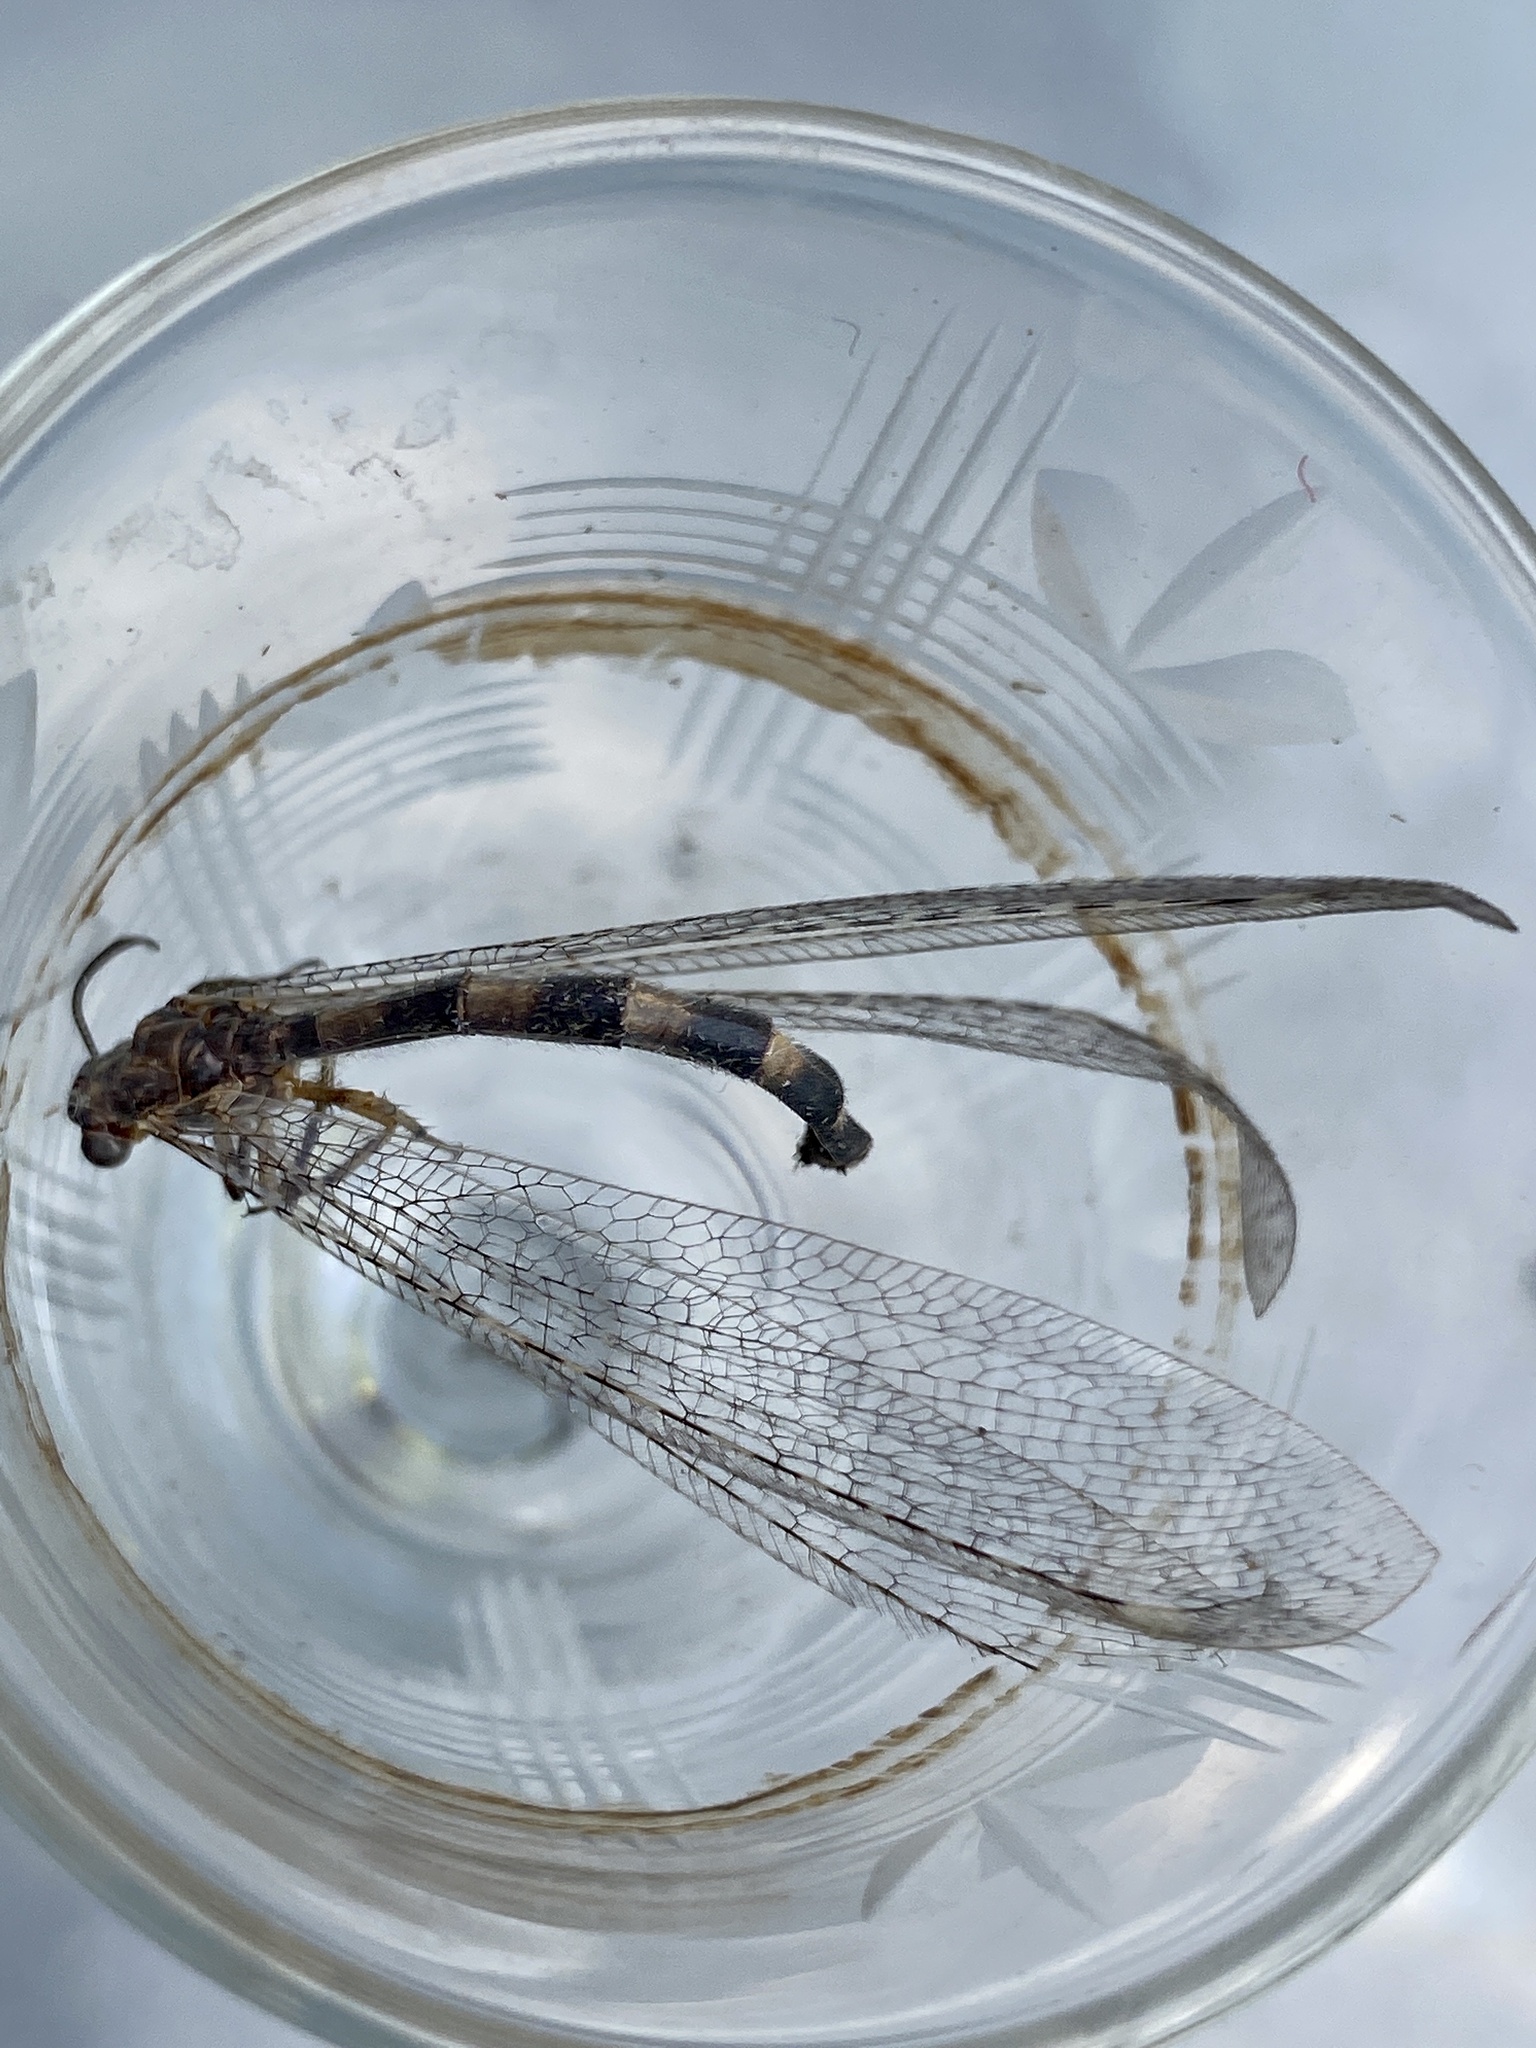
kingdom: Animalia
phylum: Arthropoda
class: Insecta
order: Neuroptera
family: Myrmeleontidae
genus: Myrmeleon
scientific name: Myrmeleon immaculatus
